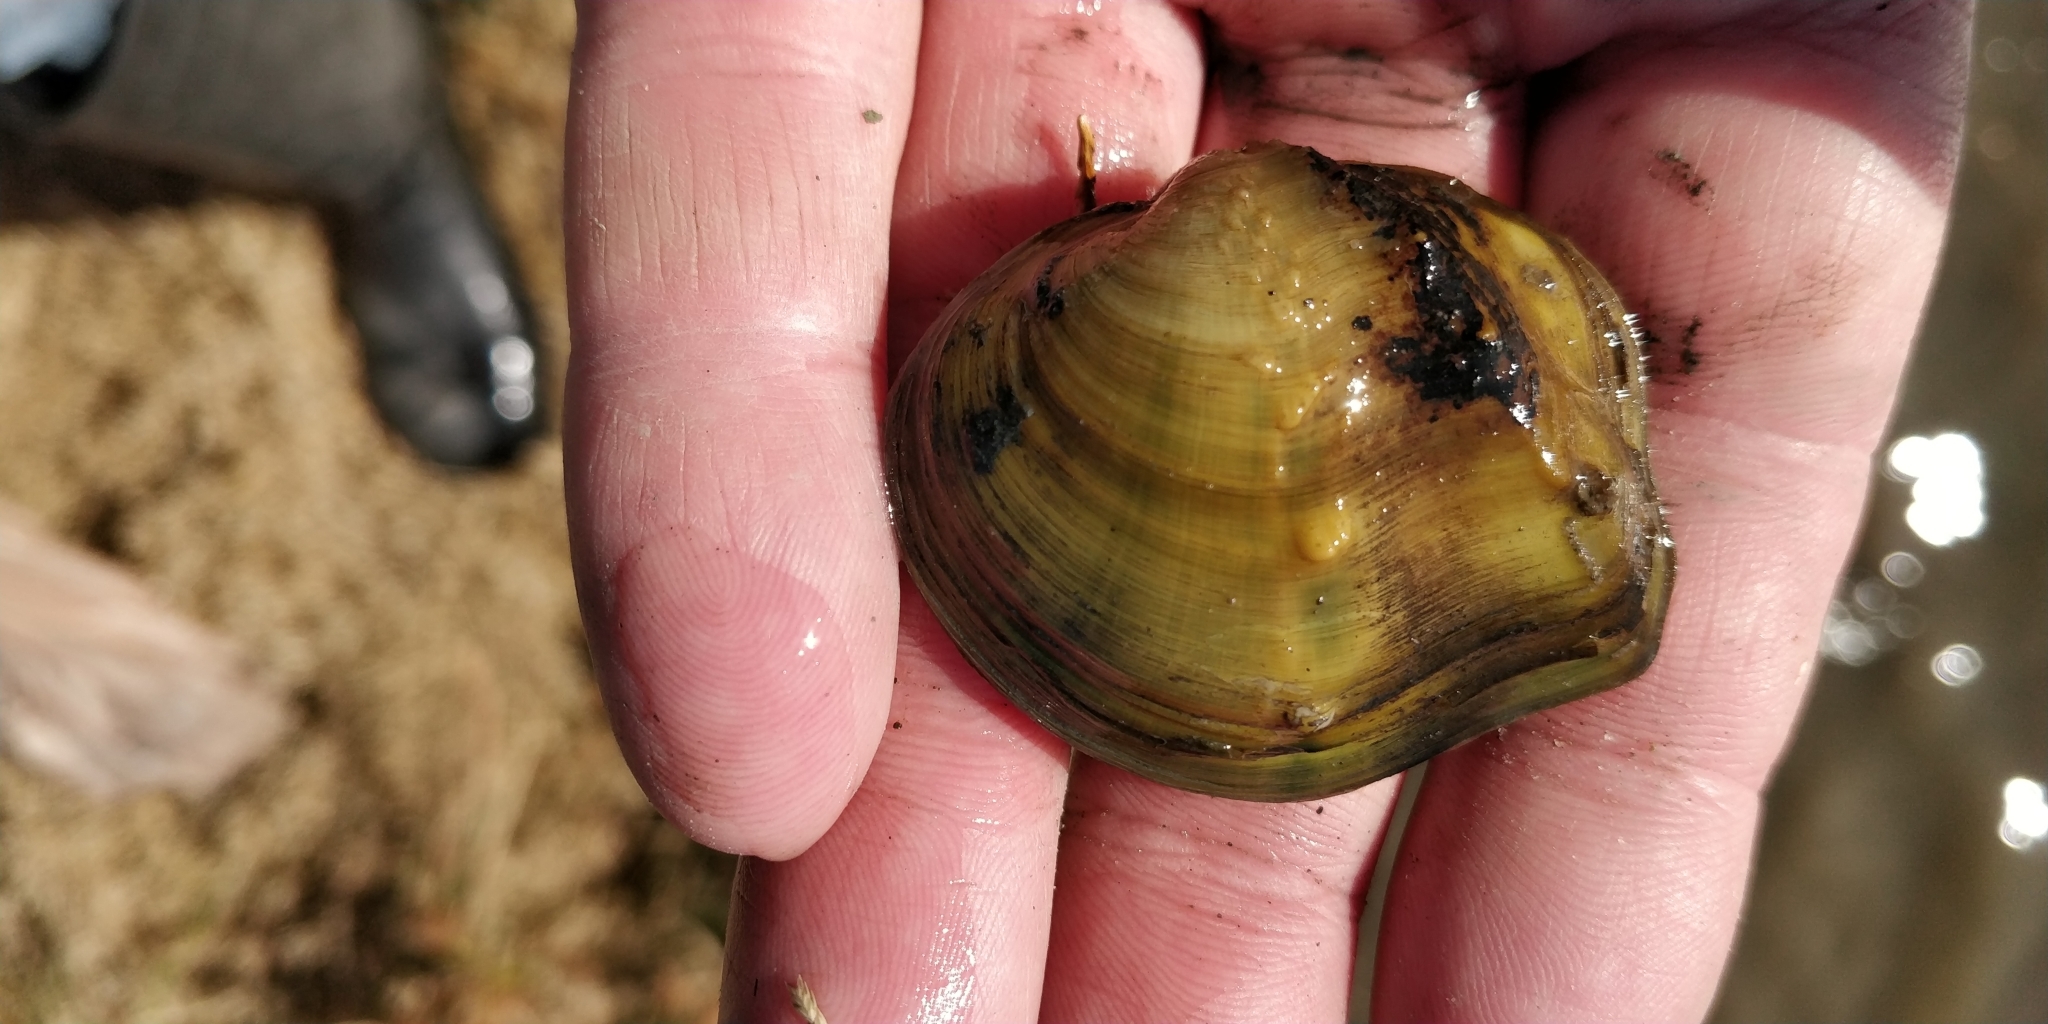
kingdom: Animalia
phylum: Mollusca
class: Bivalvia
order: Unionida
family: Unionidae
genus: Quadrula
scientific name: Quadrula quadrula
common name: Mapleleaf
